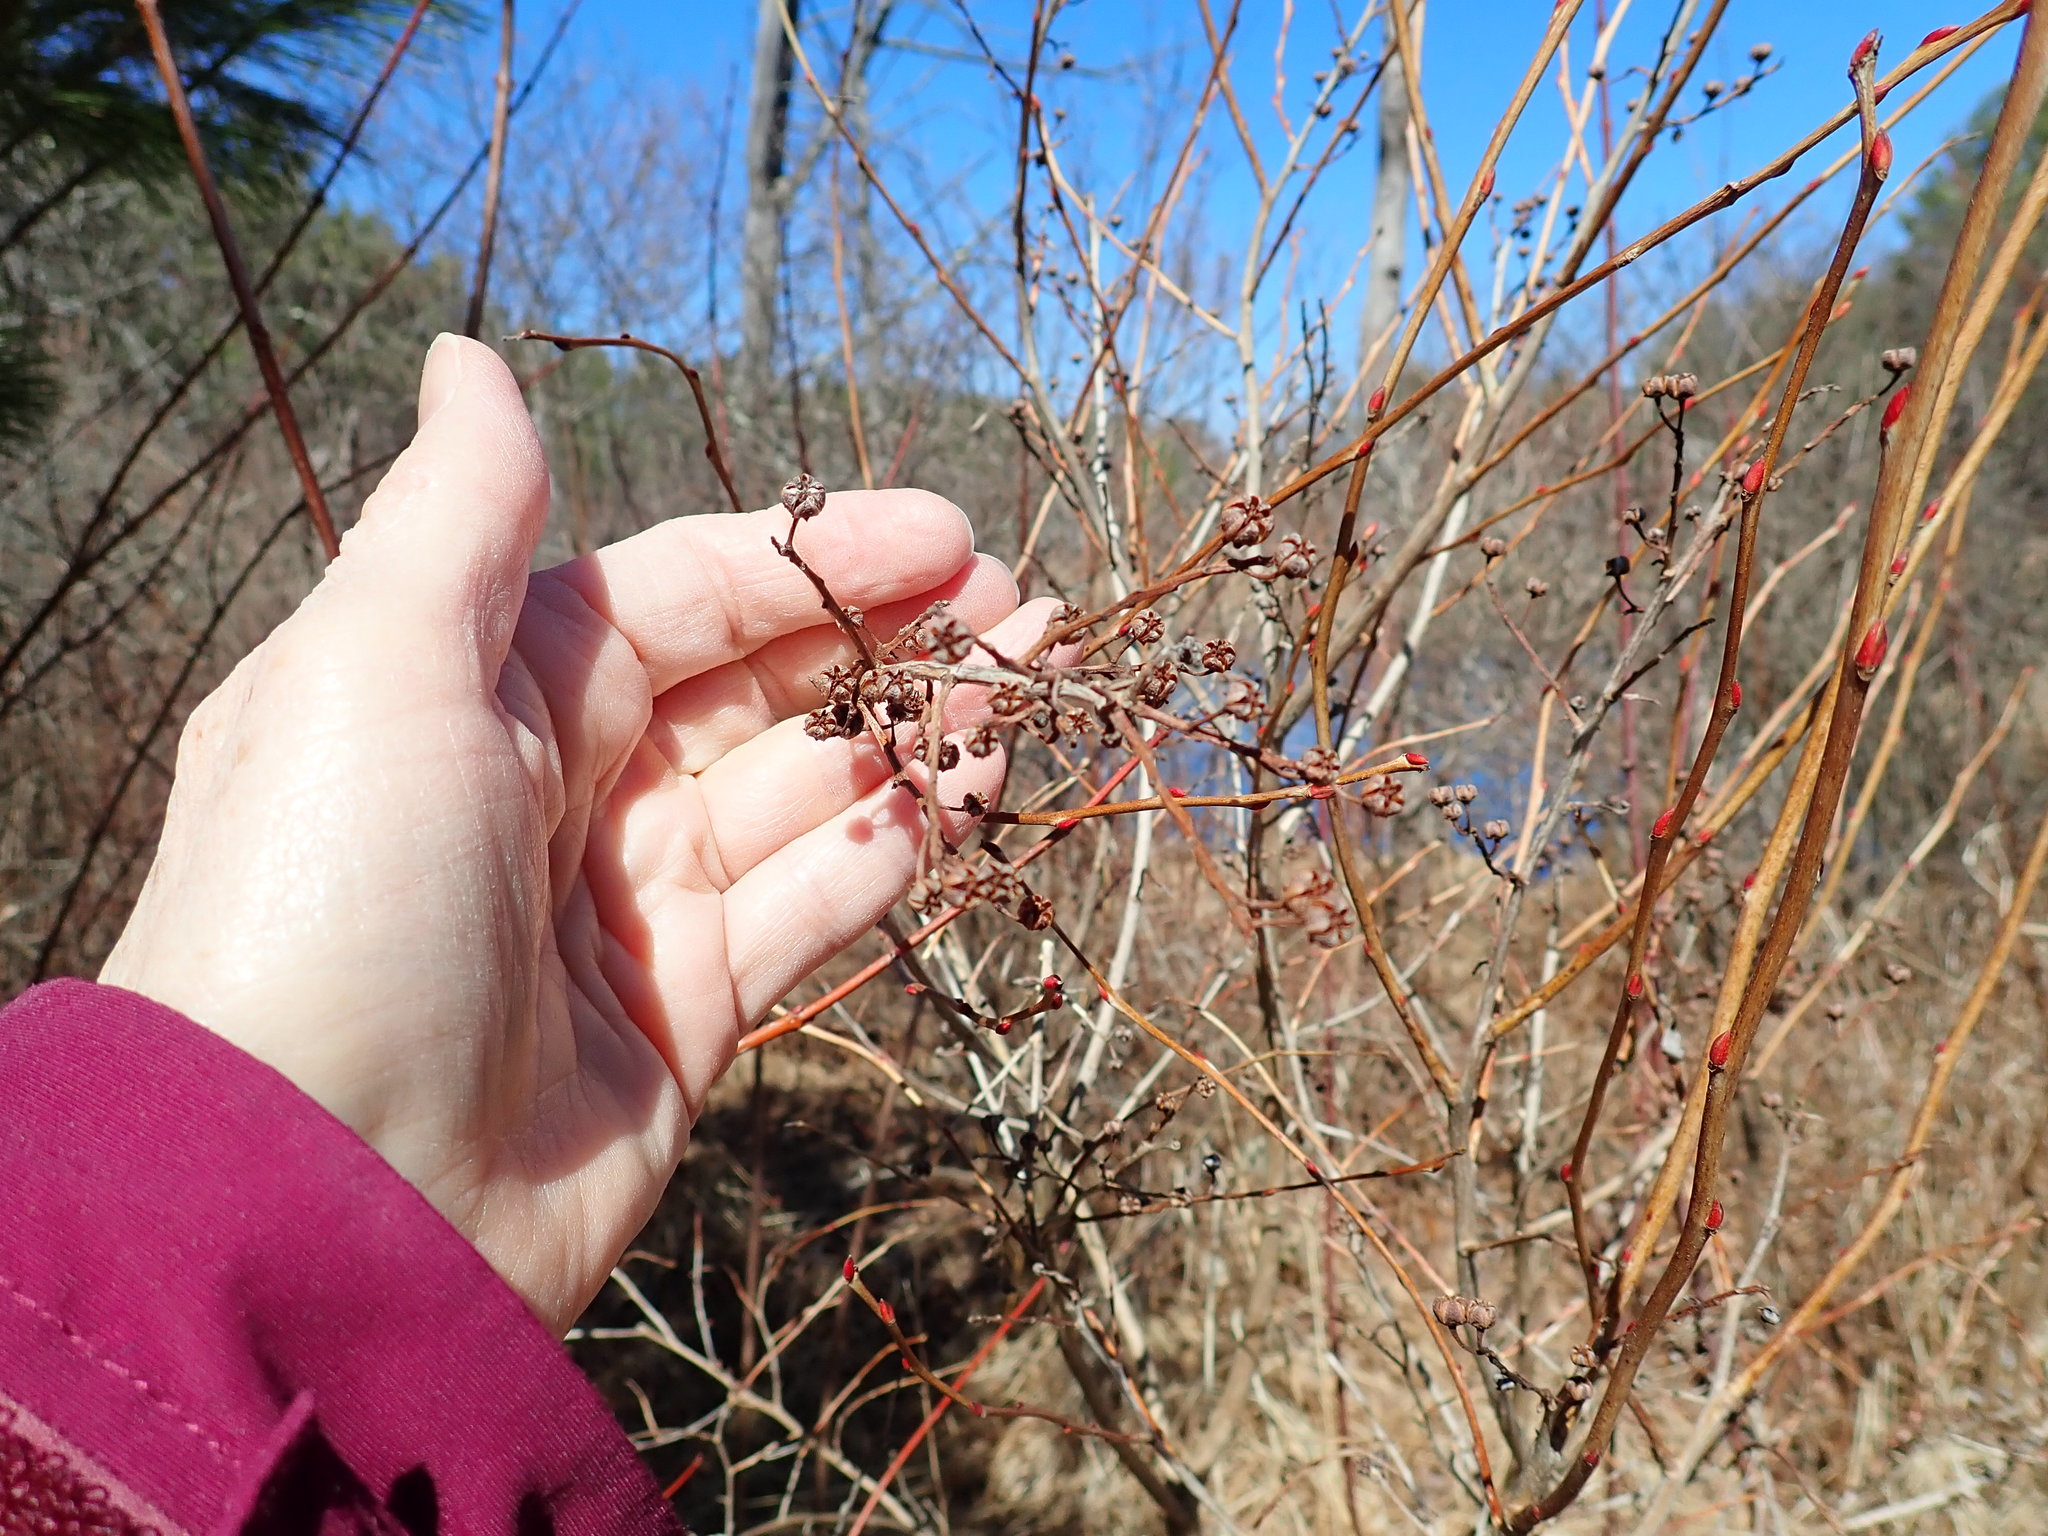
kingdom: Plantae
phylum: Tracheophyta
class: Magnoliopsida
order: Ericales
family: Ericaceae
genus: Lyonia
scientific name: Lyonia ligustrina
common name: Maleberry
